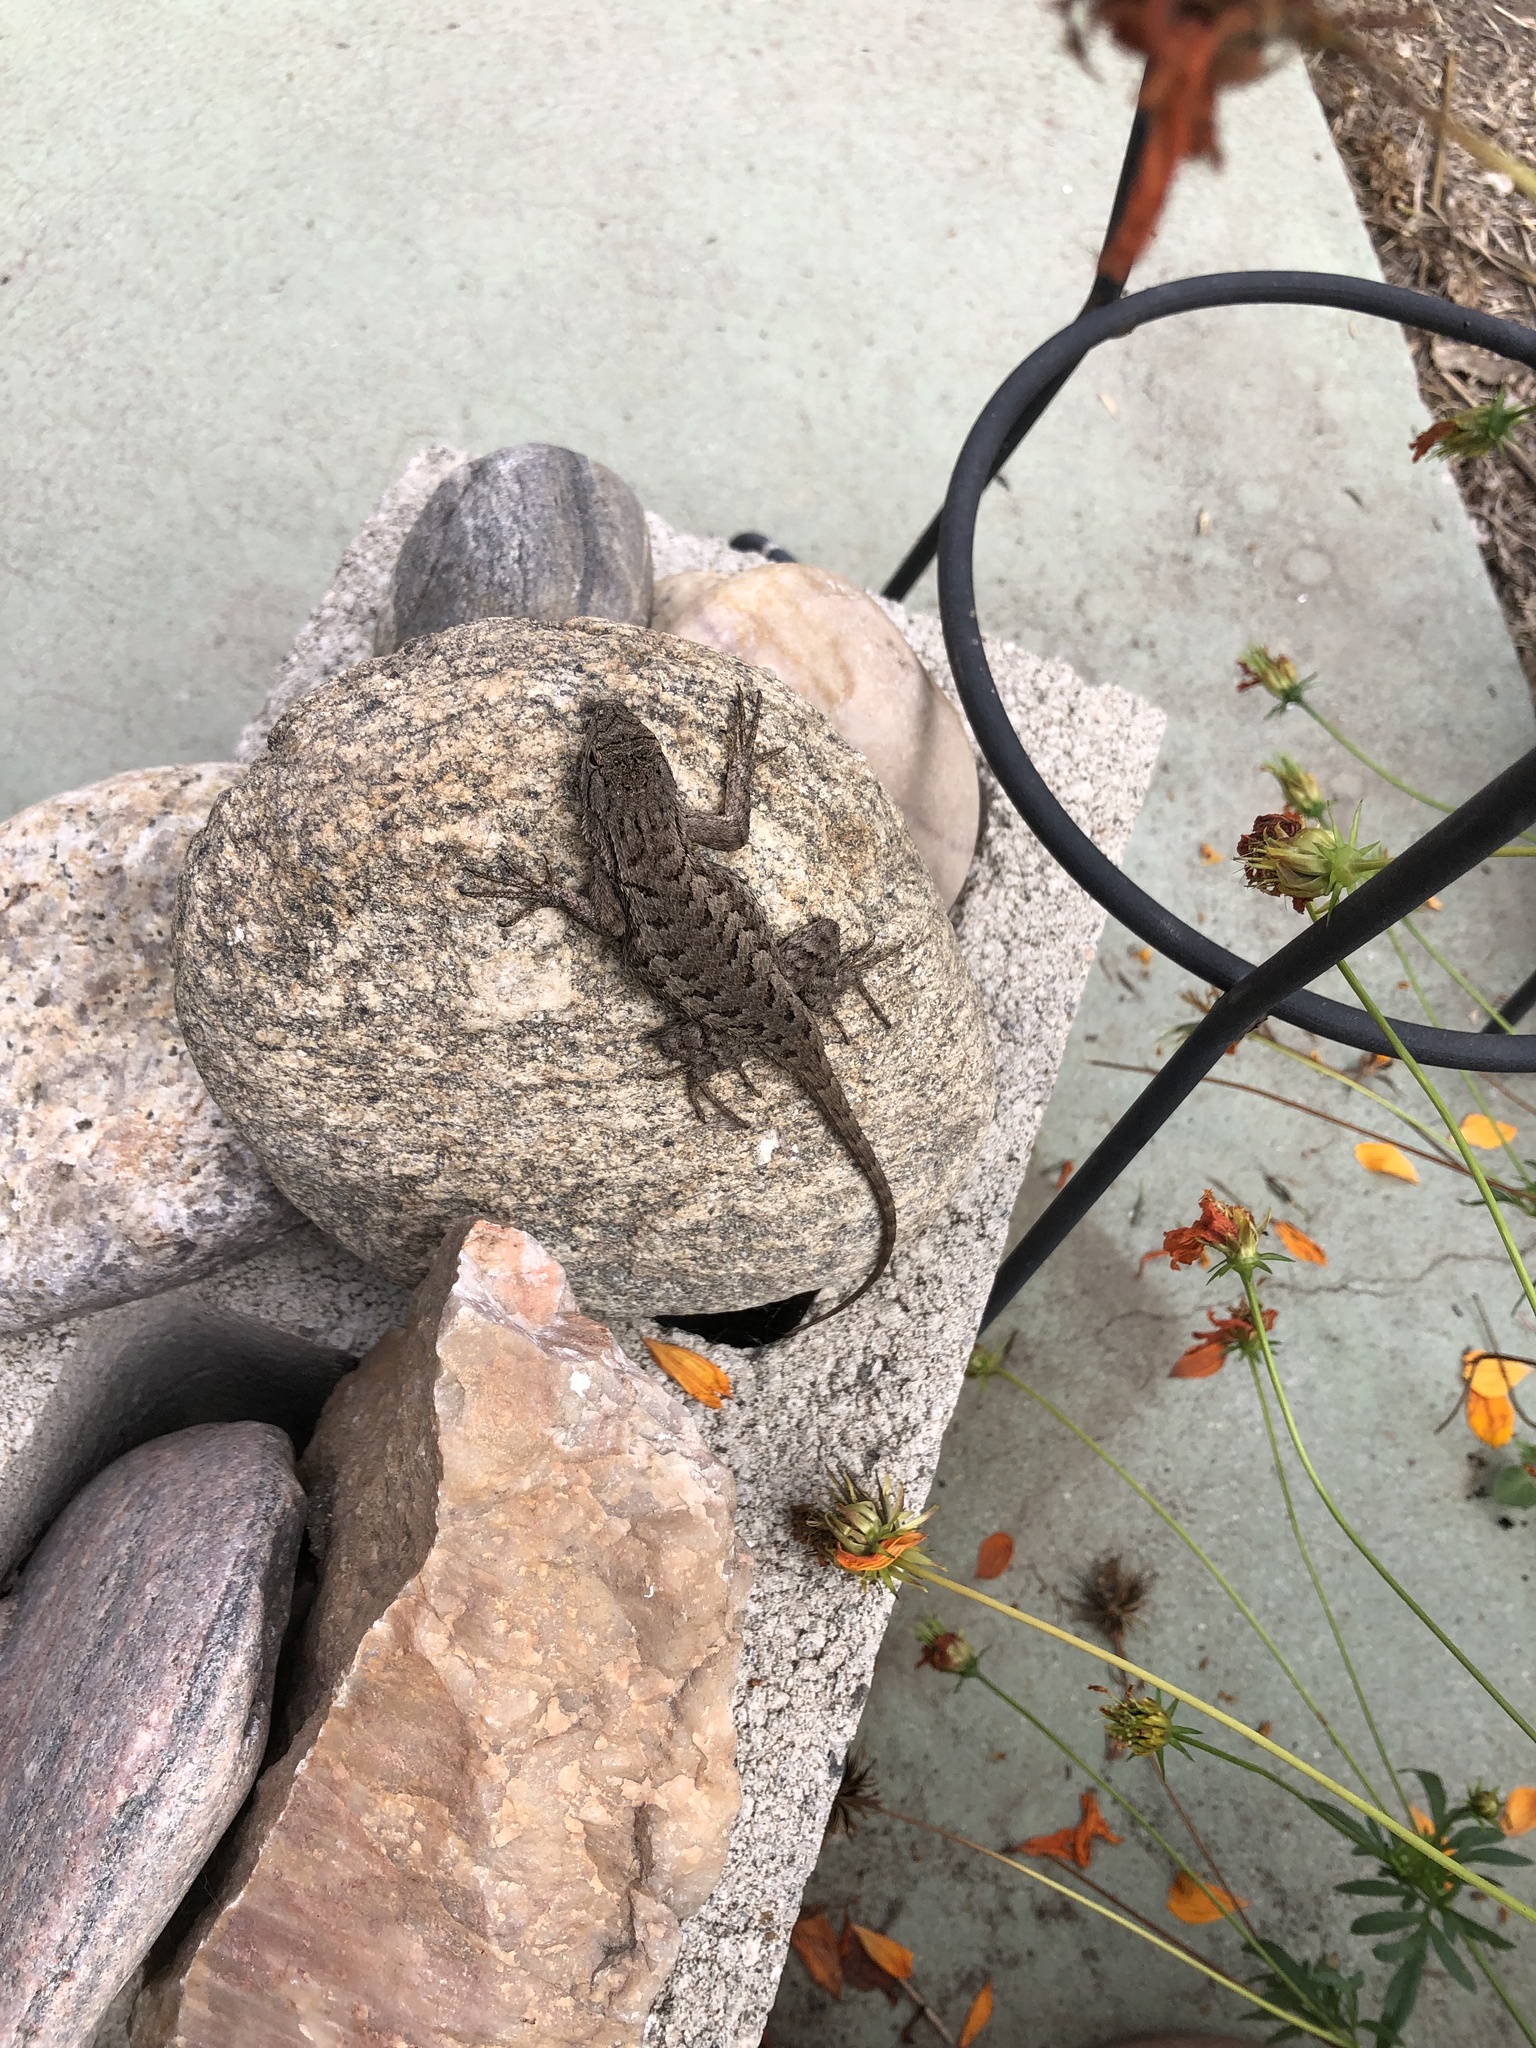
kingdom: Animalia
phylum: Chordata
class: Squamata
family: Phrynosomatidae
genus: Sceloporus
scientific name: Sceloporus occidentalis
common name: Western fence lizard
